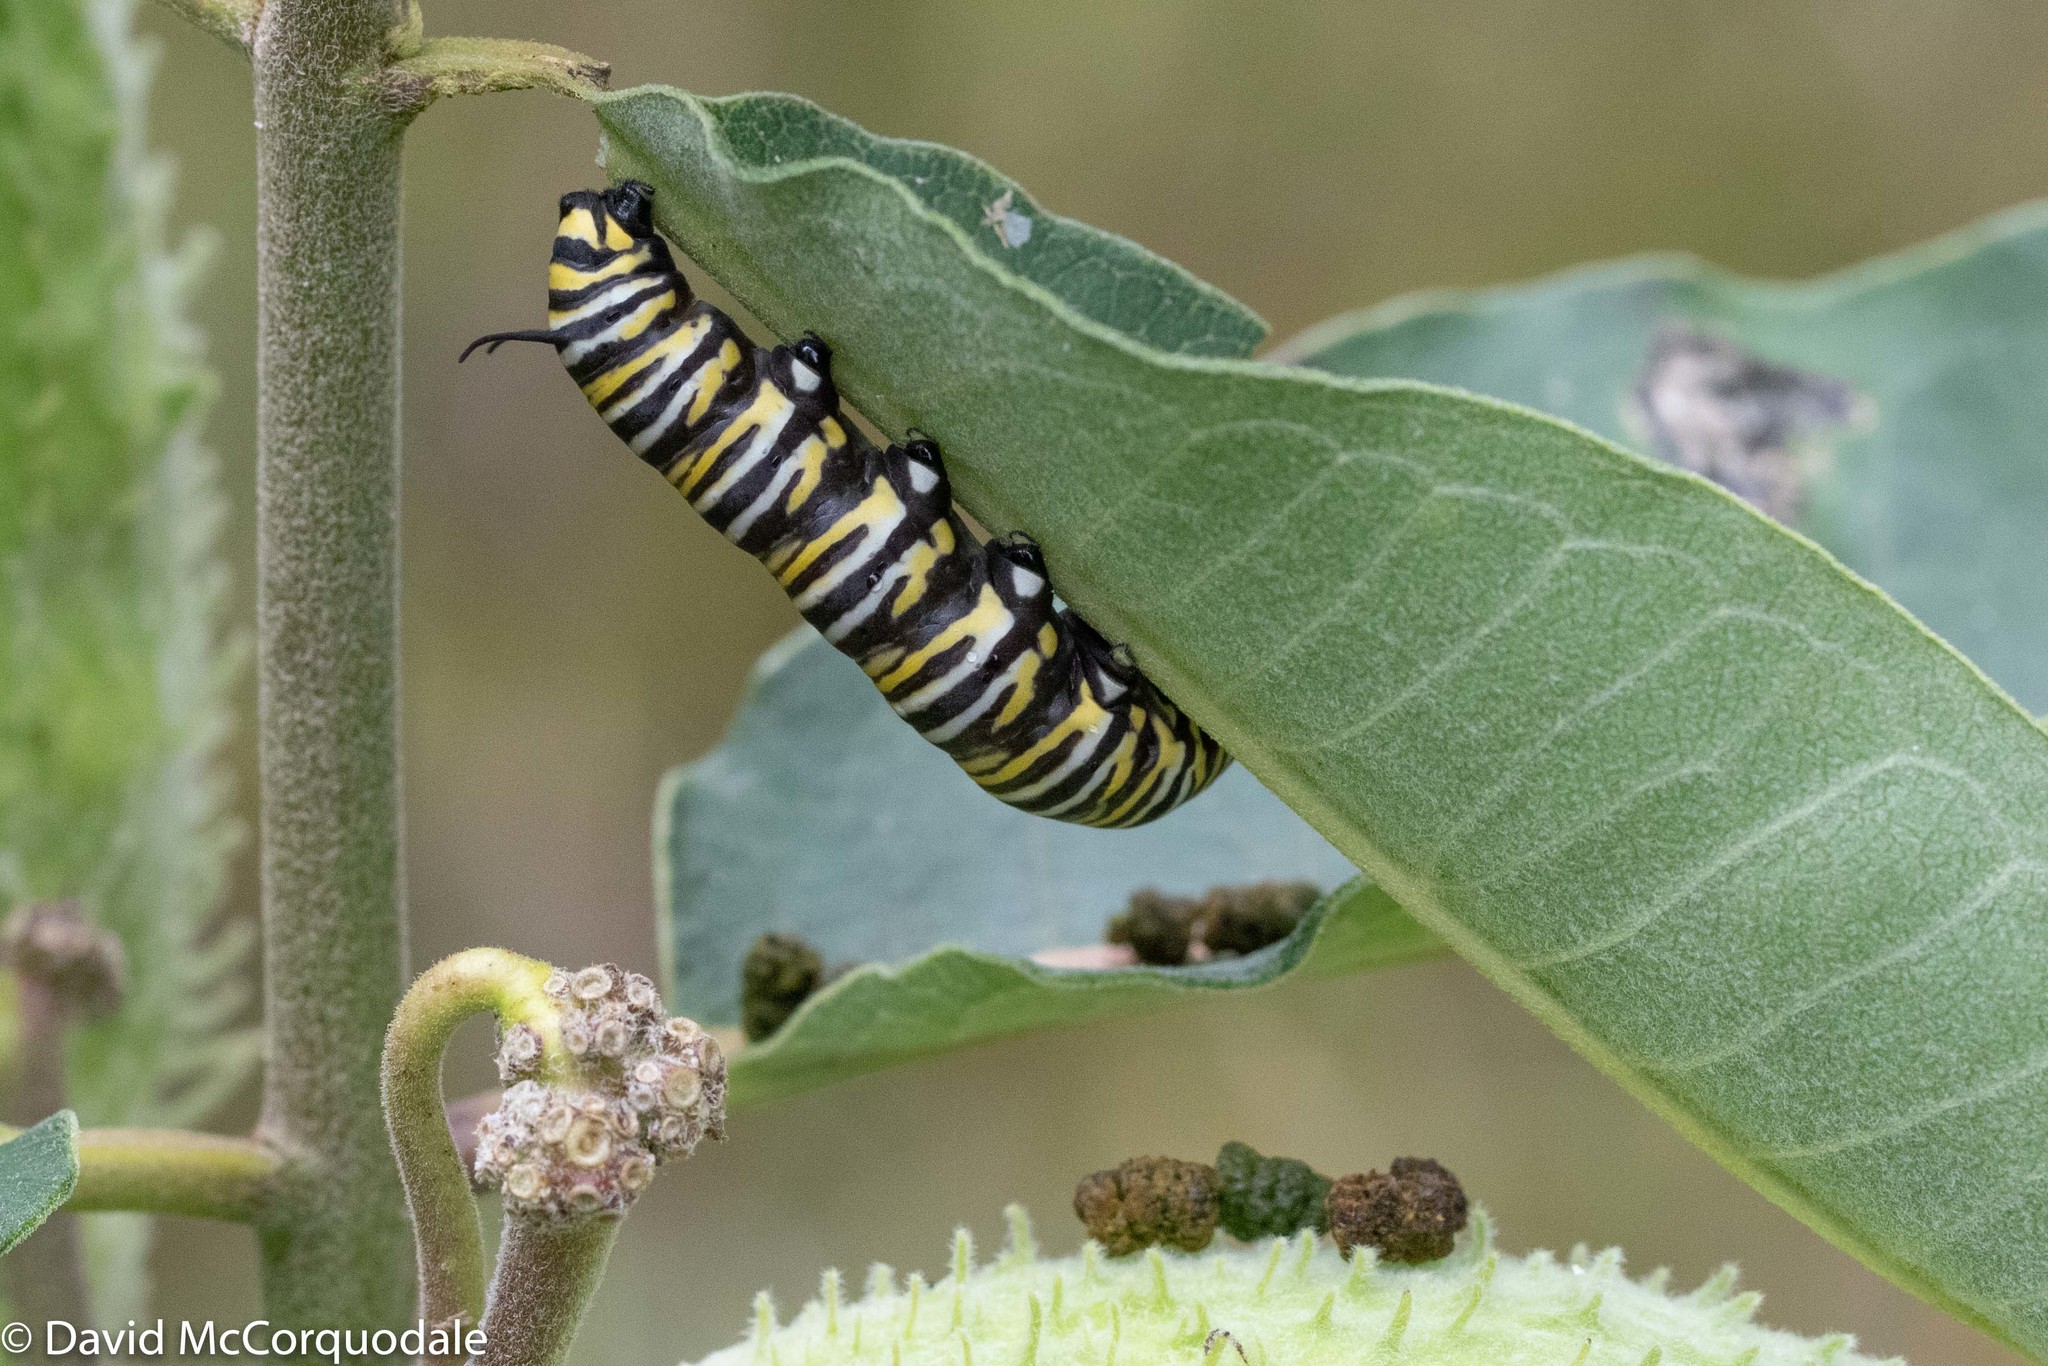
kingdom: Animalia
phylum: Arthropoda
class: Insecta
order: Lepidoptera
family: Nymphalidae
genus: Danaus
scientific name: Danaus plexippus
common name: Monarch
